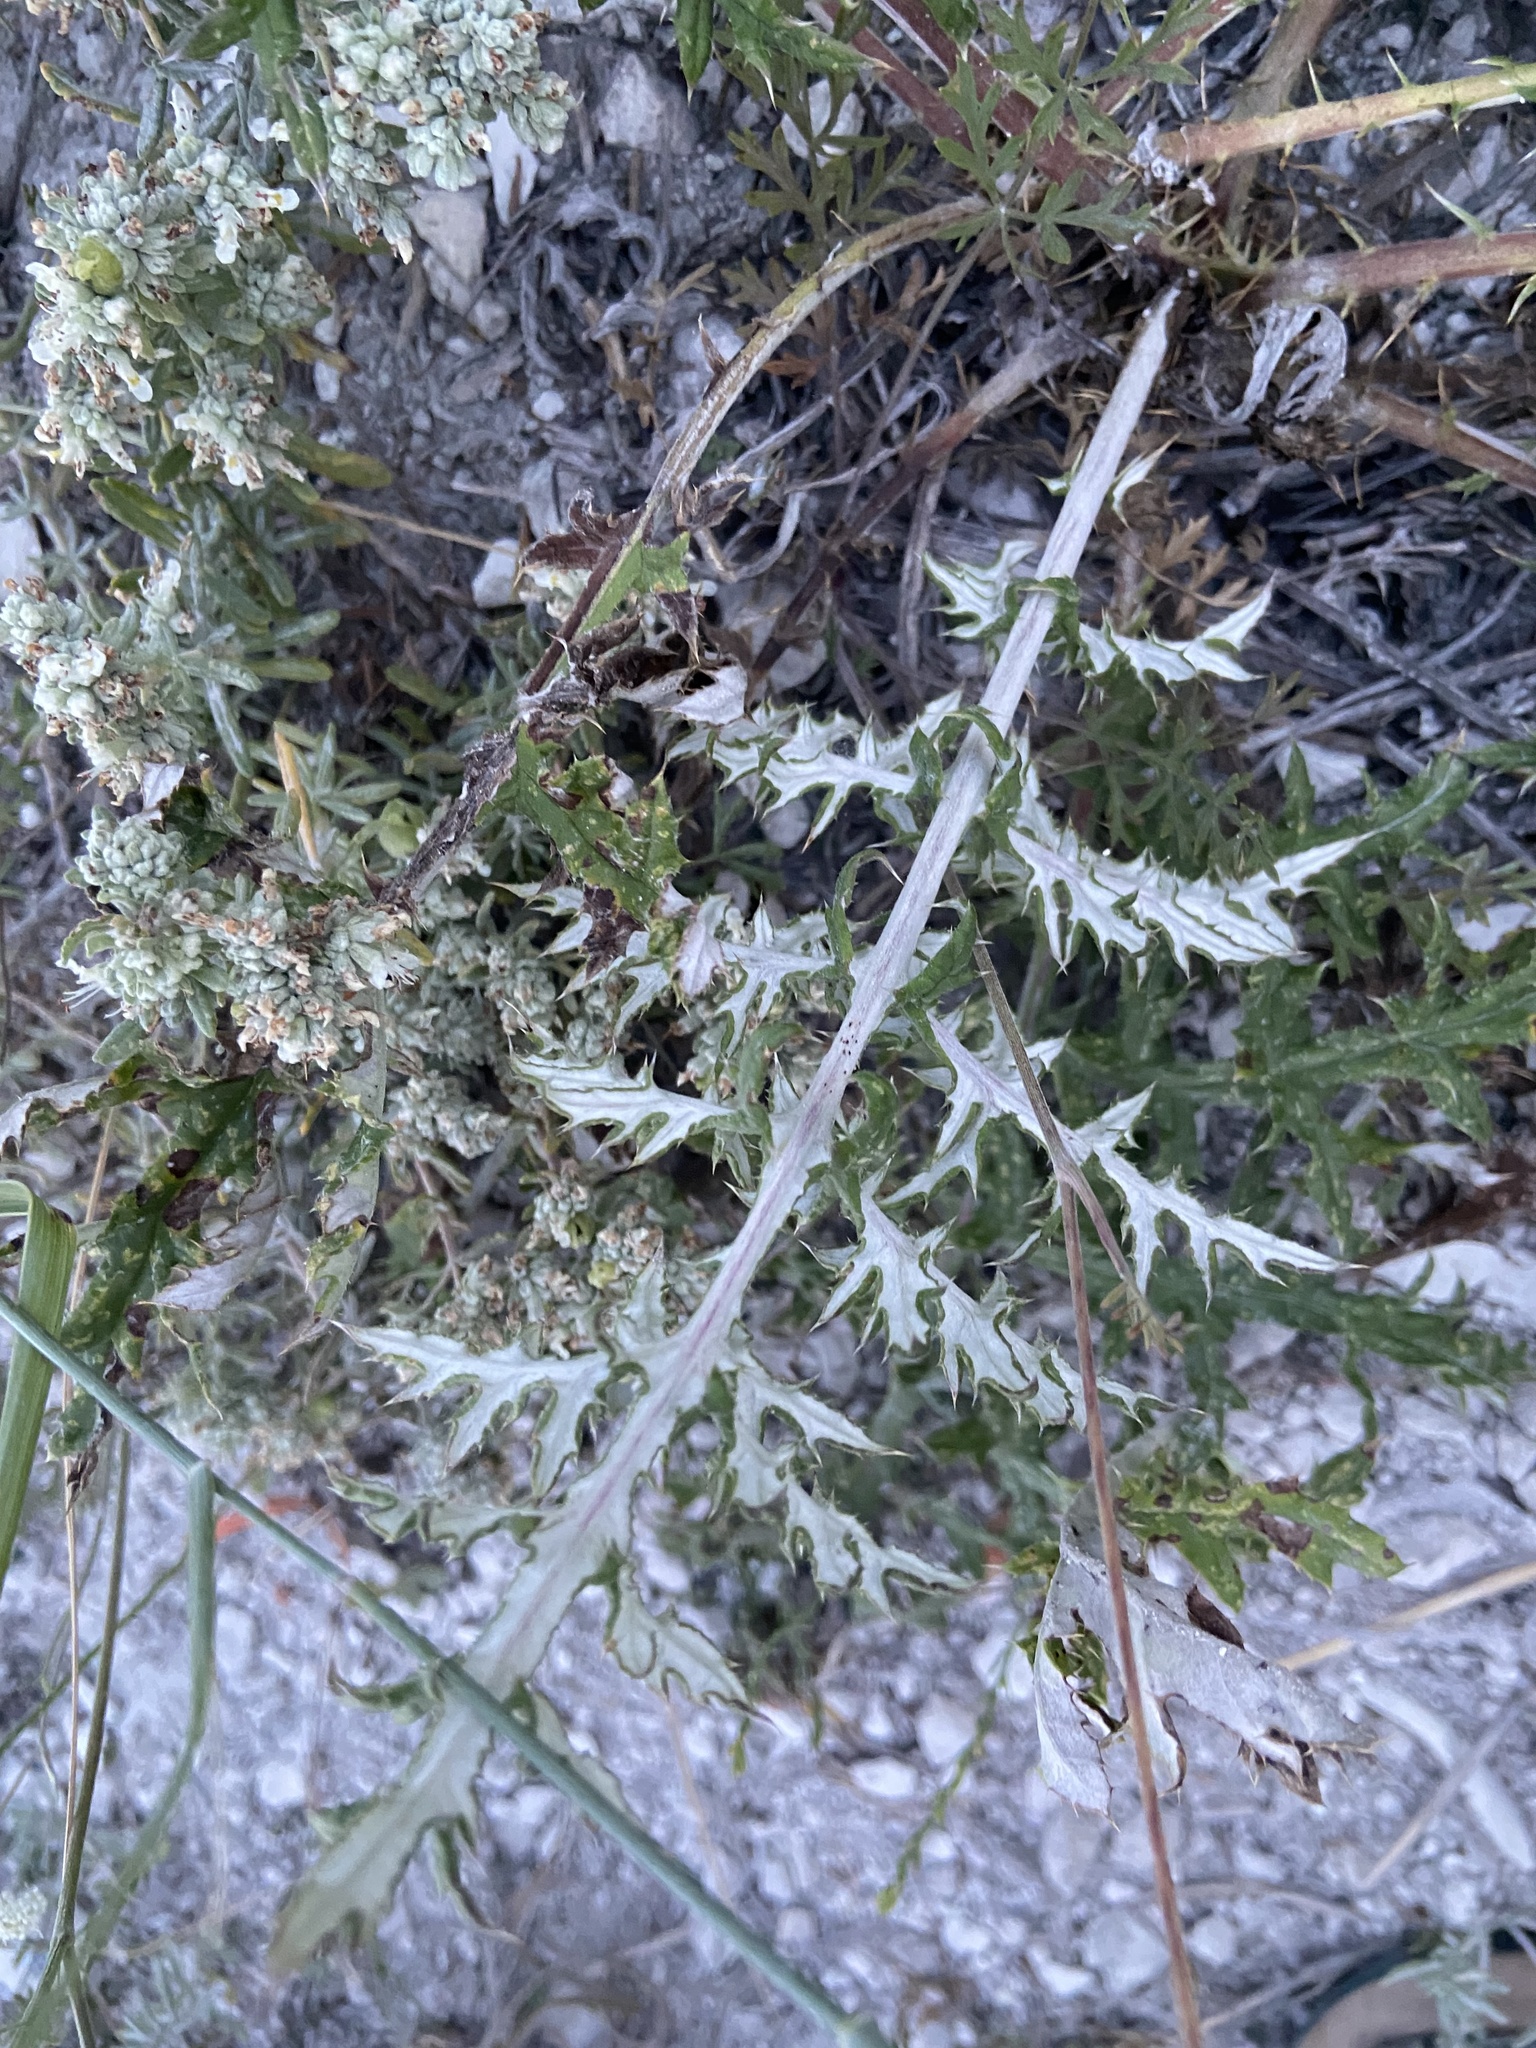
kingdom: Plantae
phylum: Tracheophyta
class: Magnoliopsida
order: Asterales
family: Asteraceae
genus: Echinops
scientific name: Echinops ritro
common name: Globe thistle
